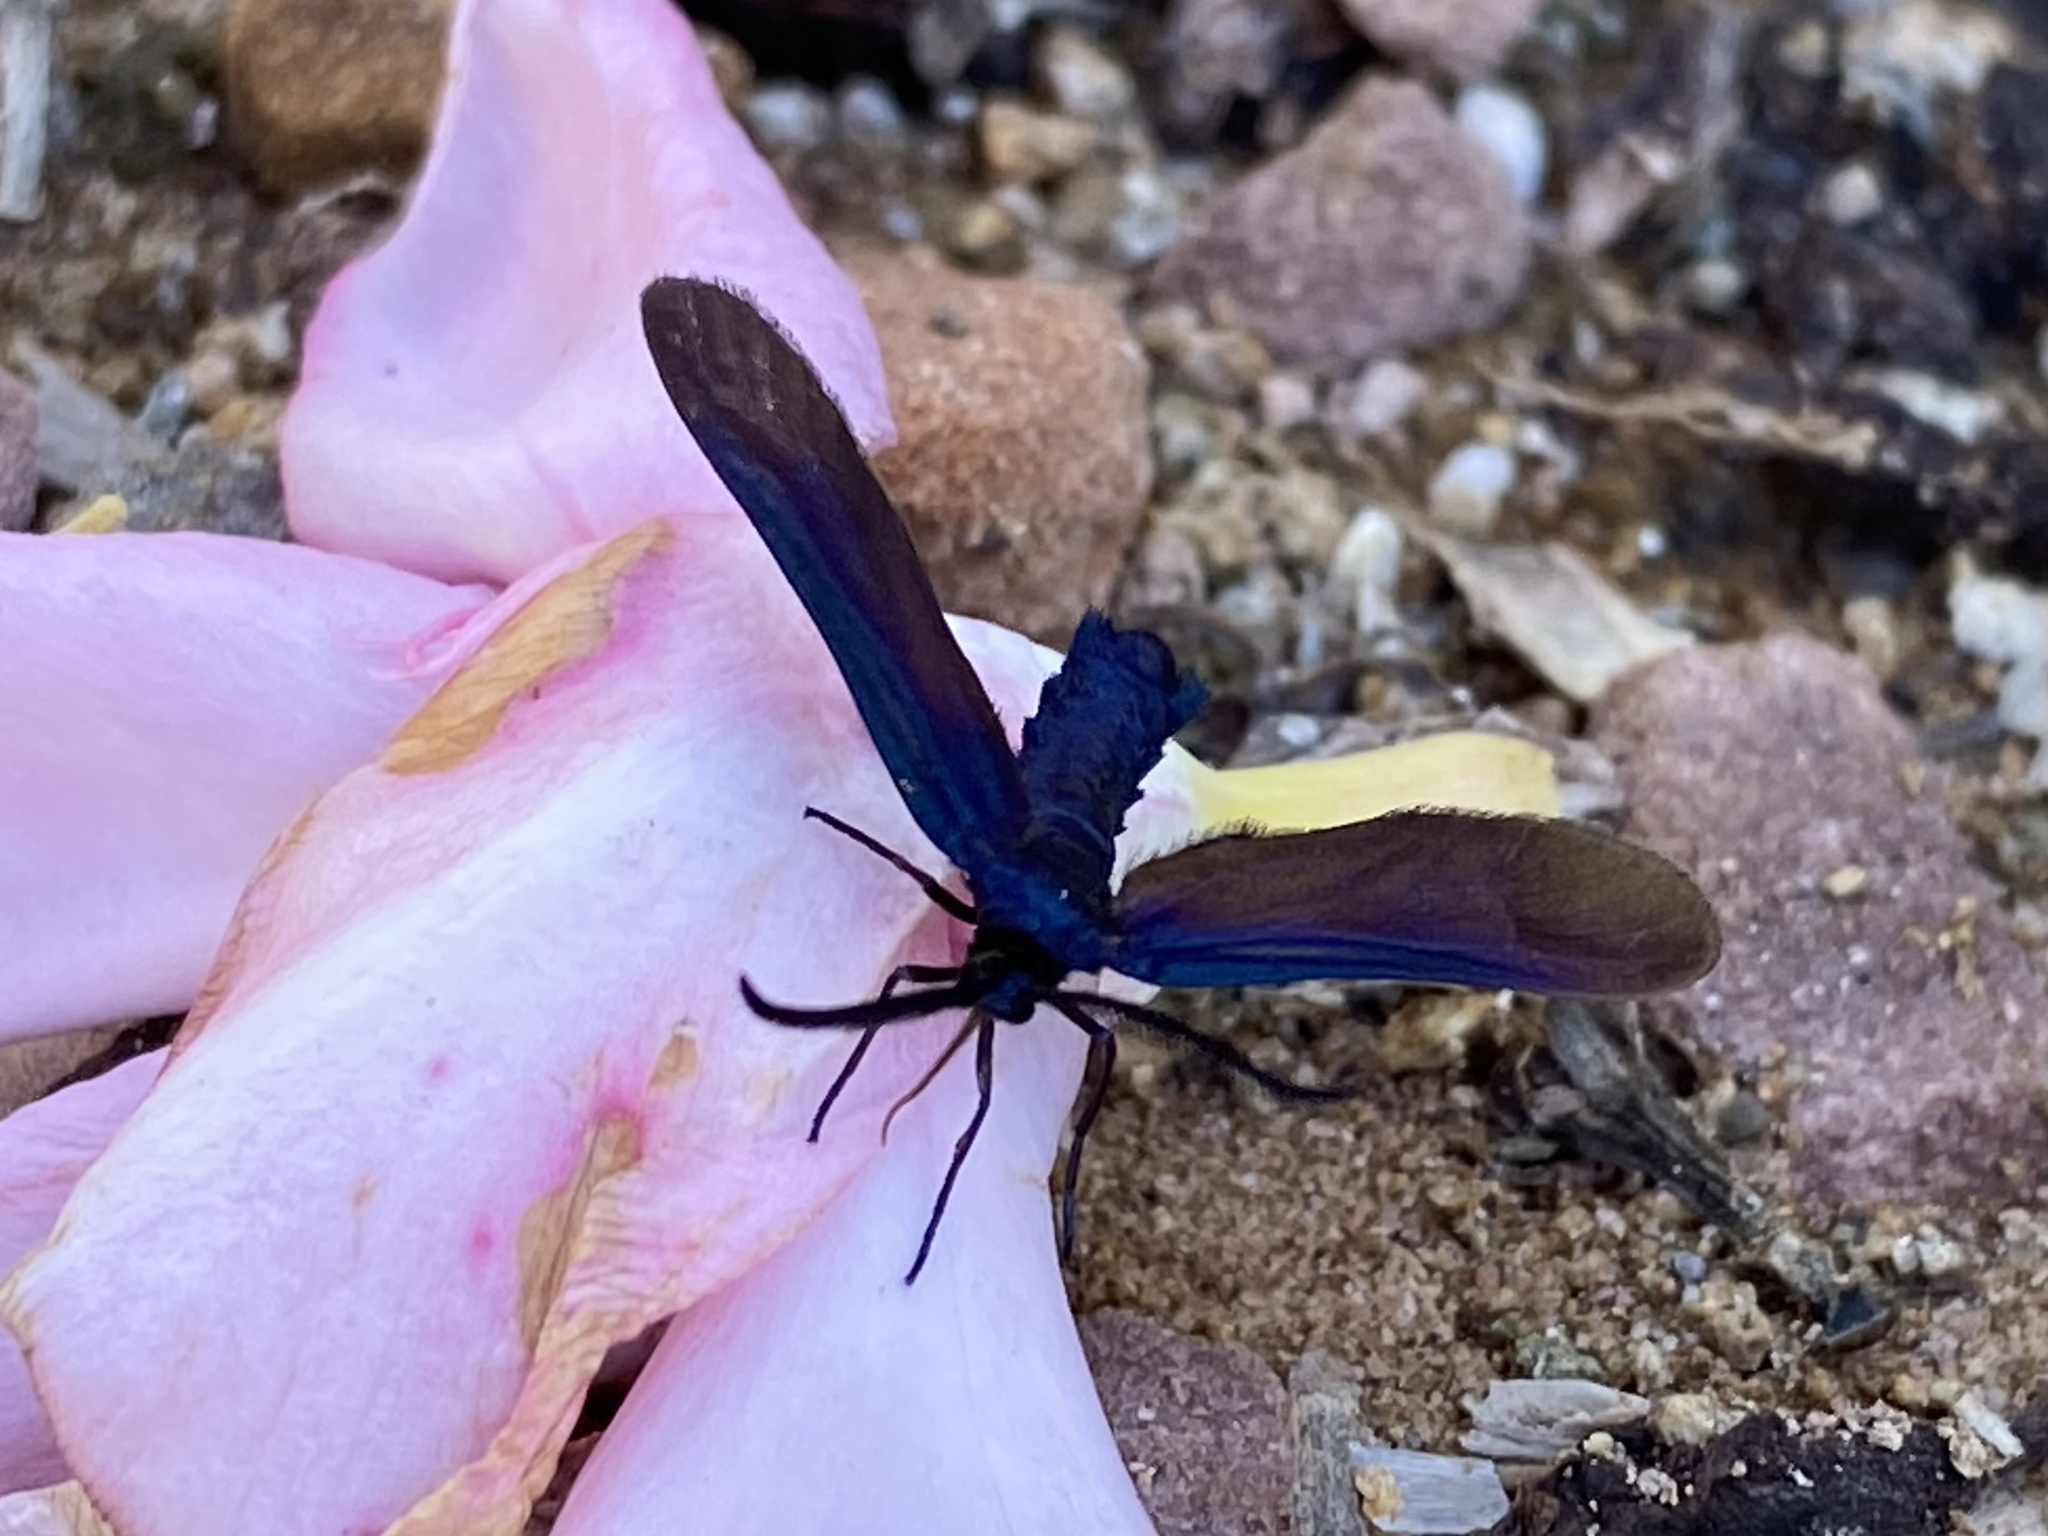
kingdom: Animalia
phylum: Arthropoda
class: Insecta
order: Lepidoptera
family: Zygaenidae
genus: Harrisina
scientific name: Harrisina metallica
